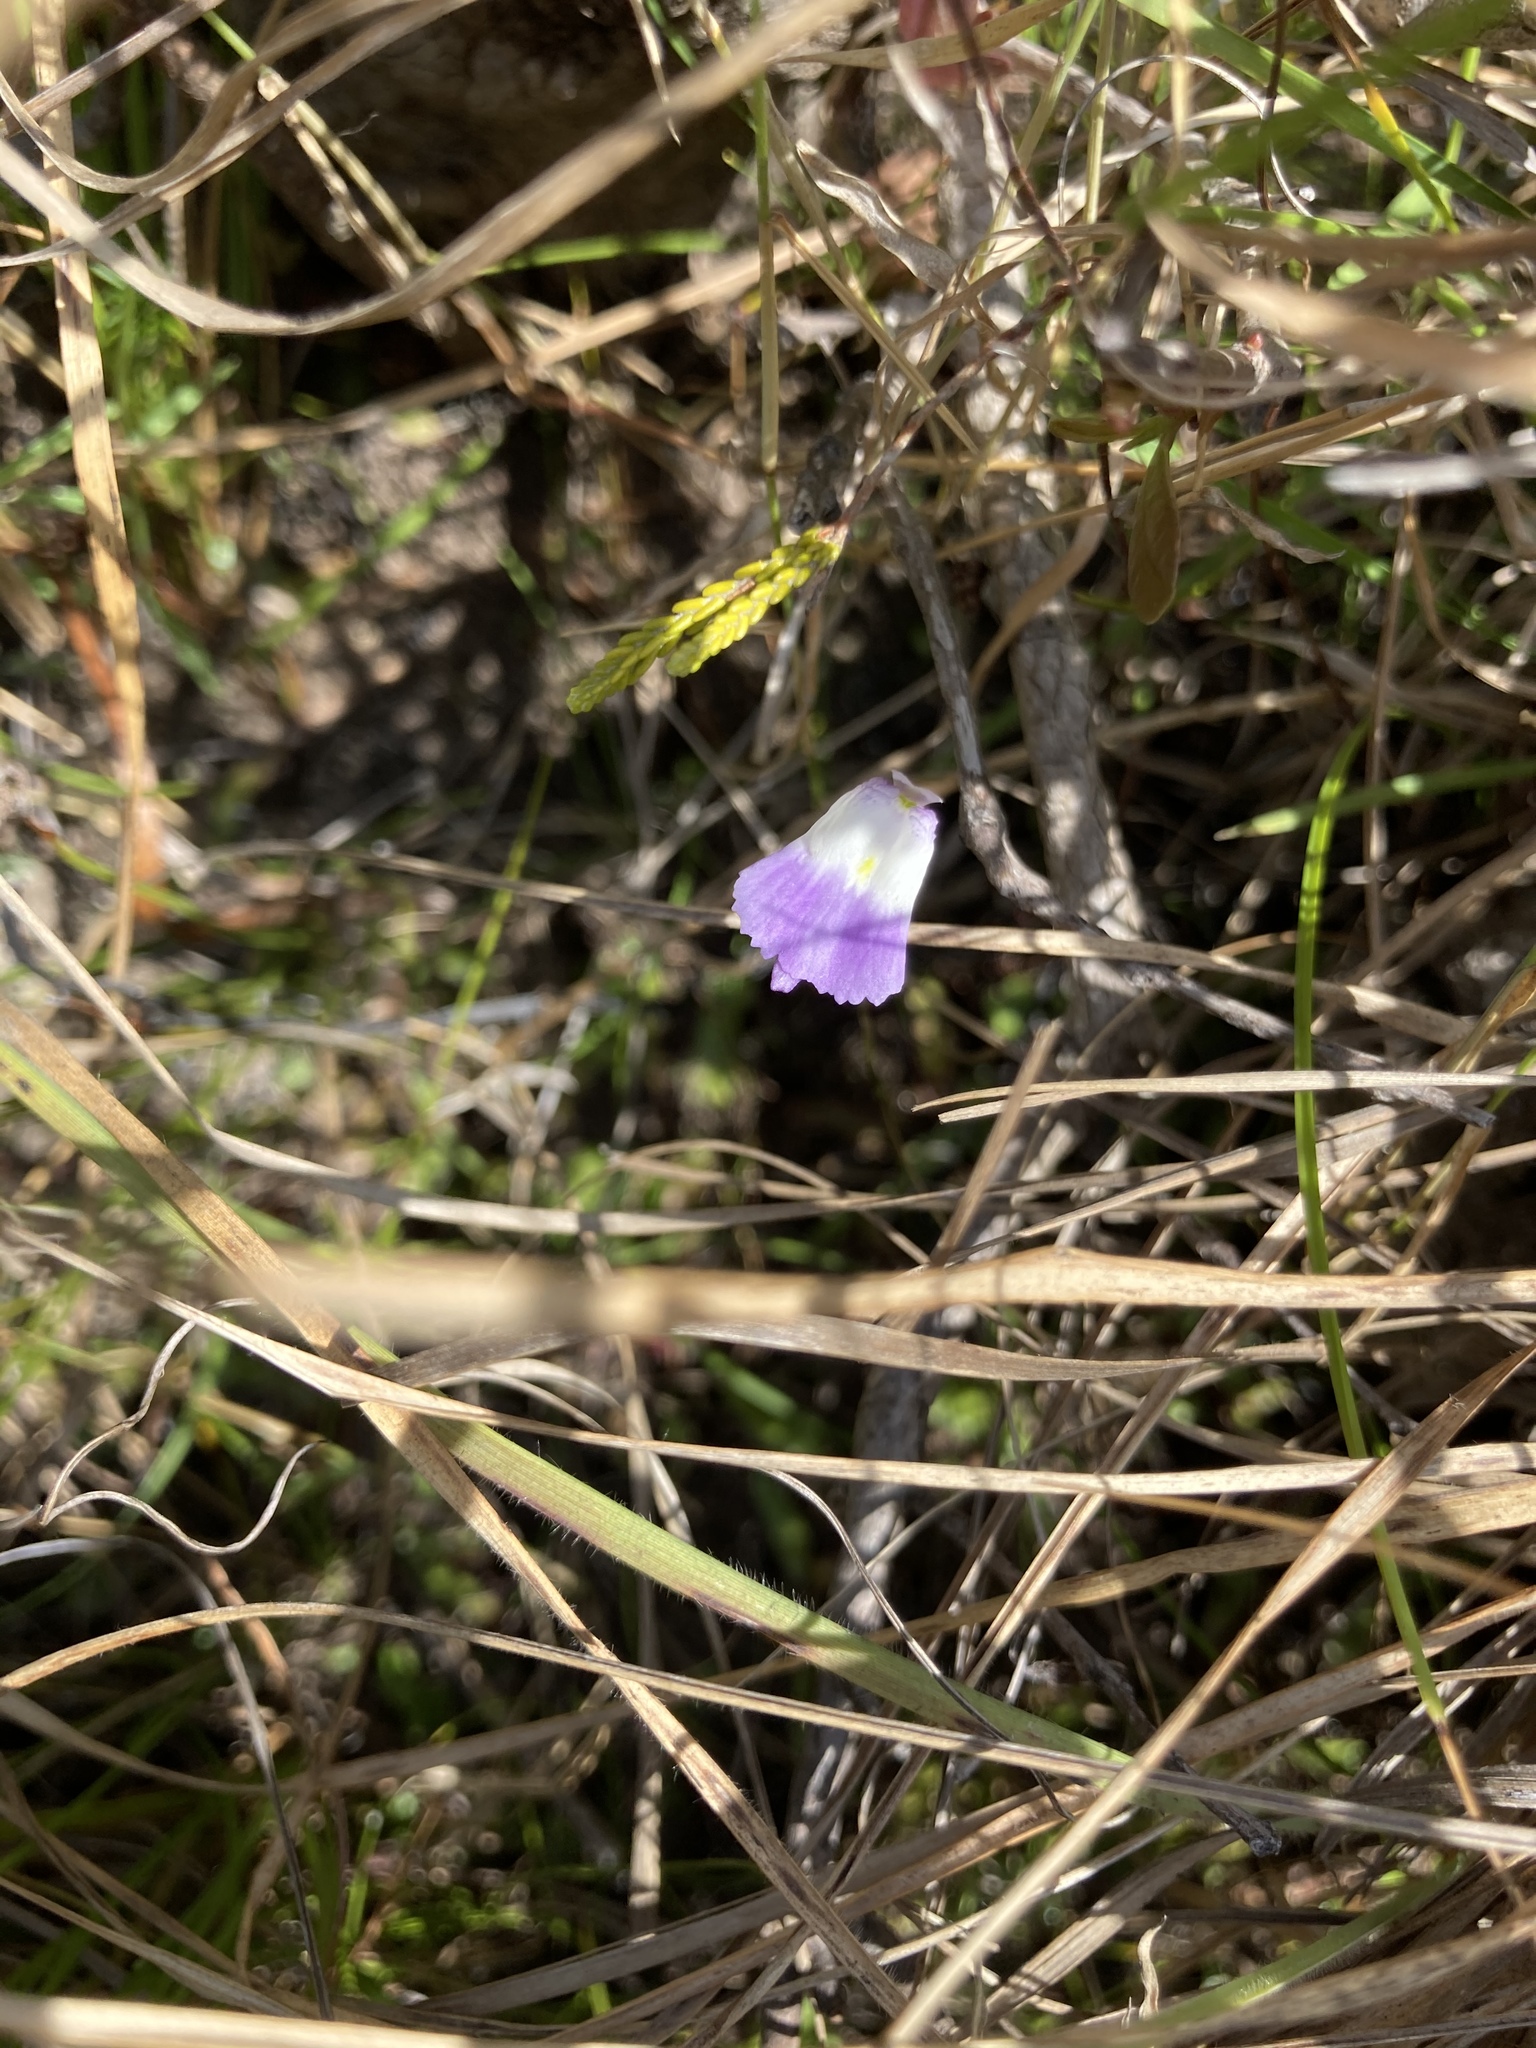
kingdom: Plantae
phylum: Tracheophyta
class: Magnoliopsida
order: Lamiales
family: Lentibulariaceae
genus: Utricularia
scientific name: Utricularia livida
